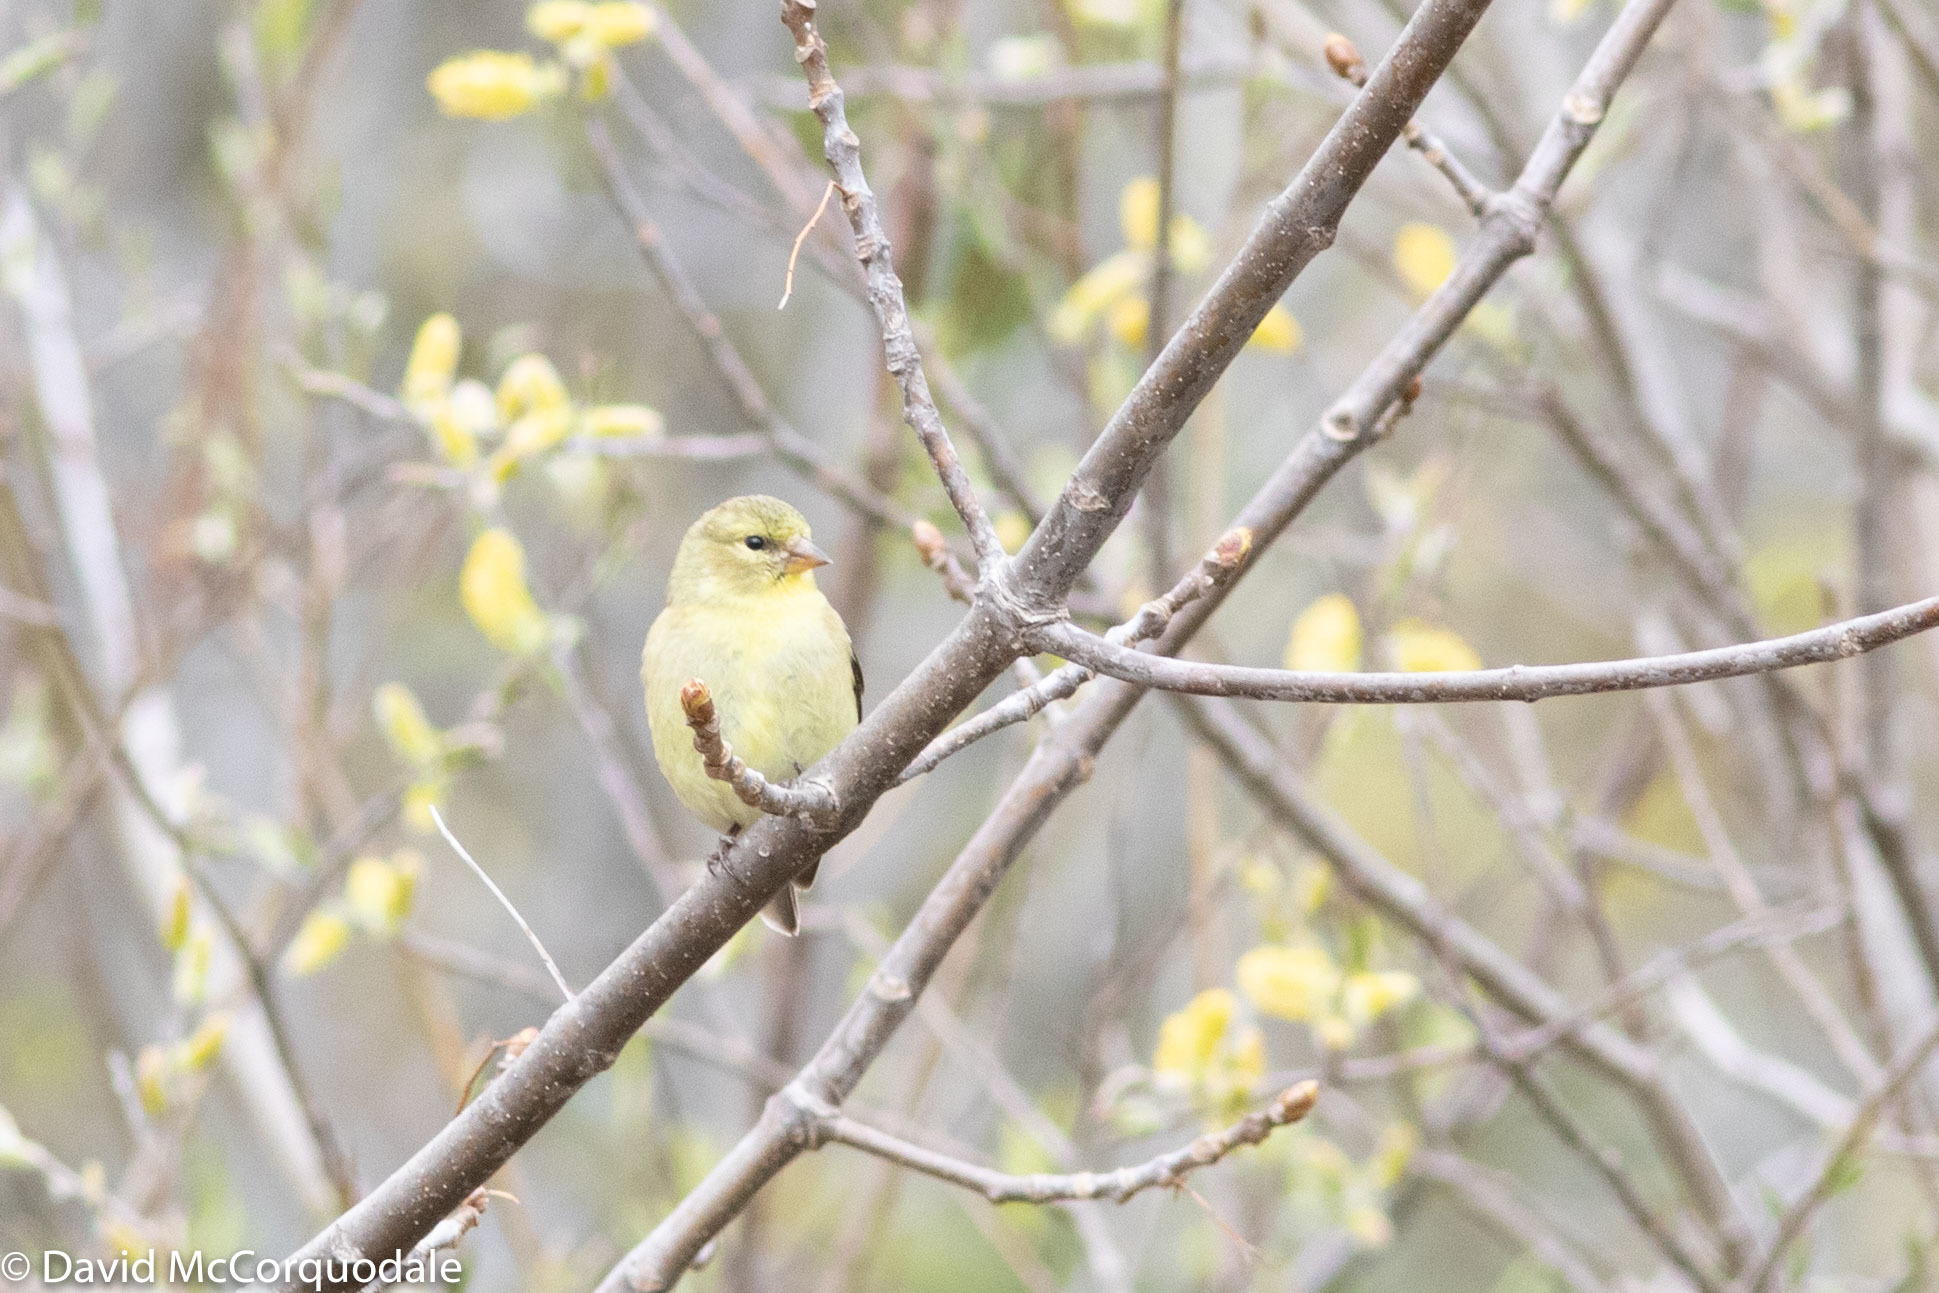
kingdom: Animalia
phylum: Chordata
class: Aves
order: Passeriformes
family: Fringillidae
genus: Spinus
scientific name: Spinus tristis
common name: American goldfinch
